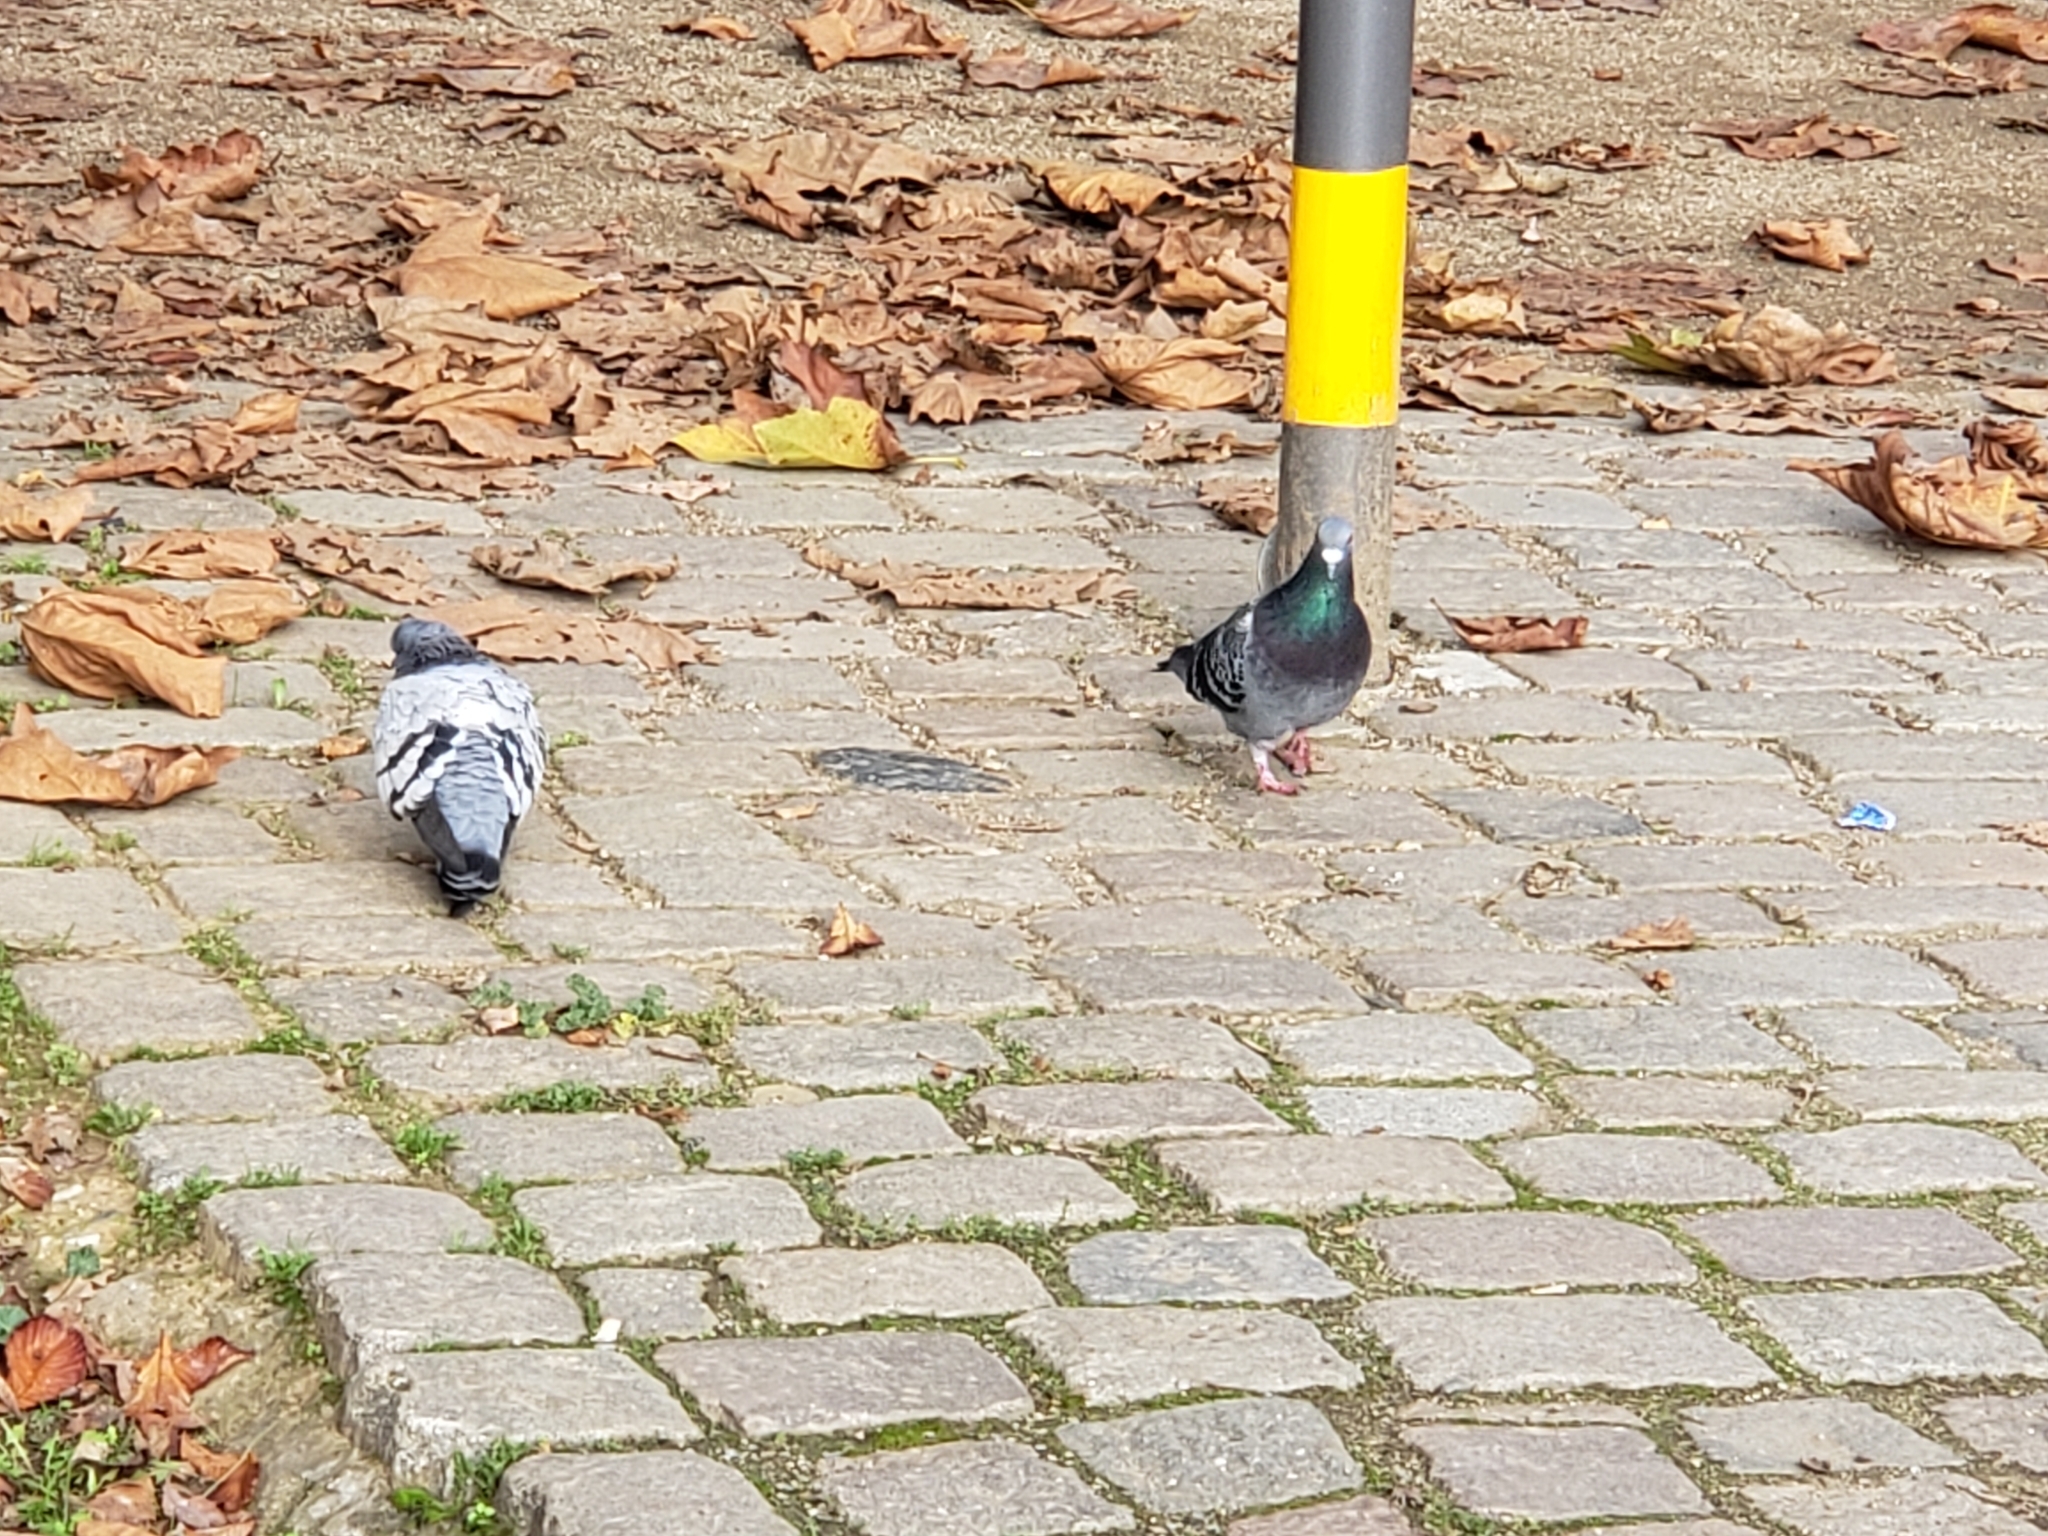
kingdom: Animalia
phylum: Chordata
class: Aves
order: Columbiformes
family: Columbidae
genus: Columba
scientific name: Columba livia
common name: Rock pigeon
